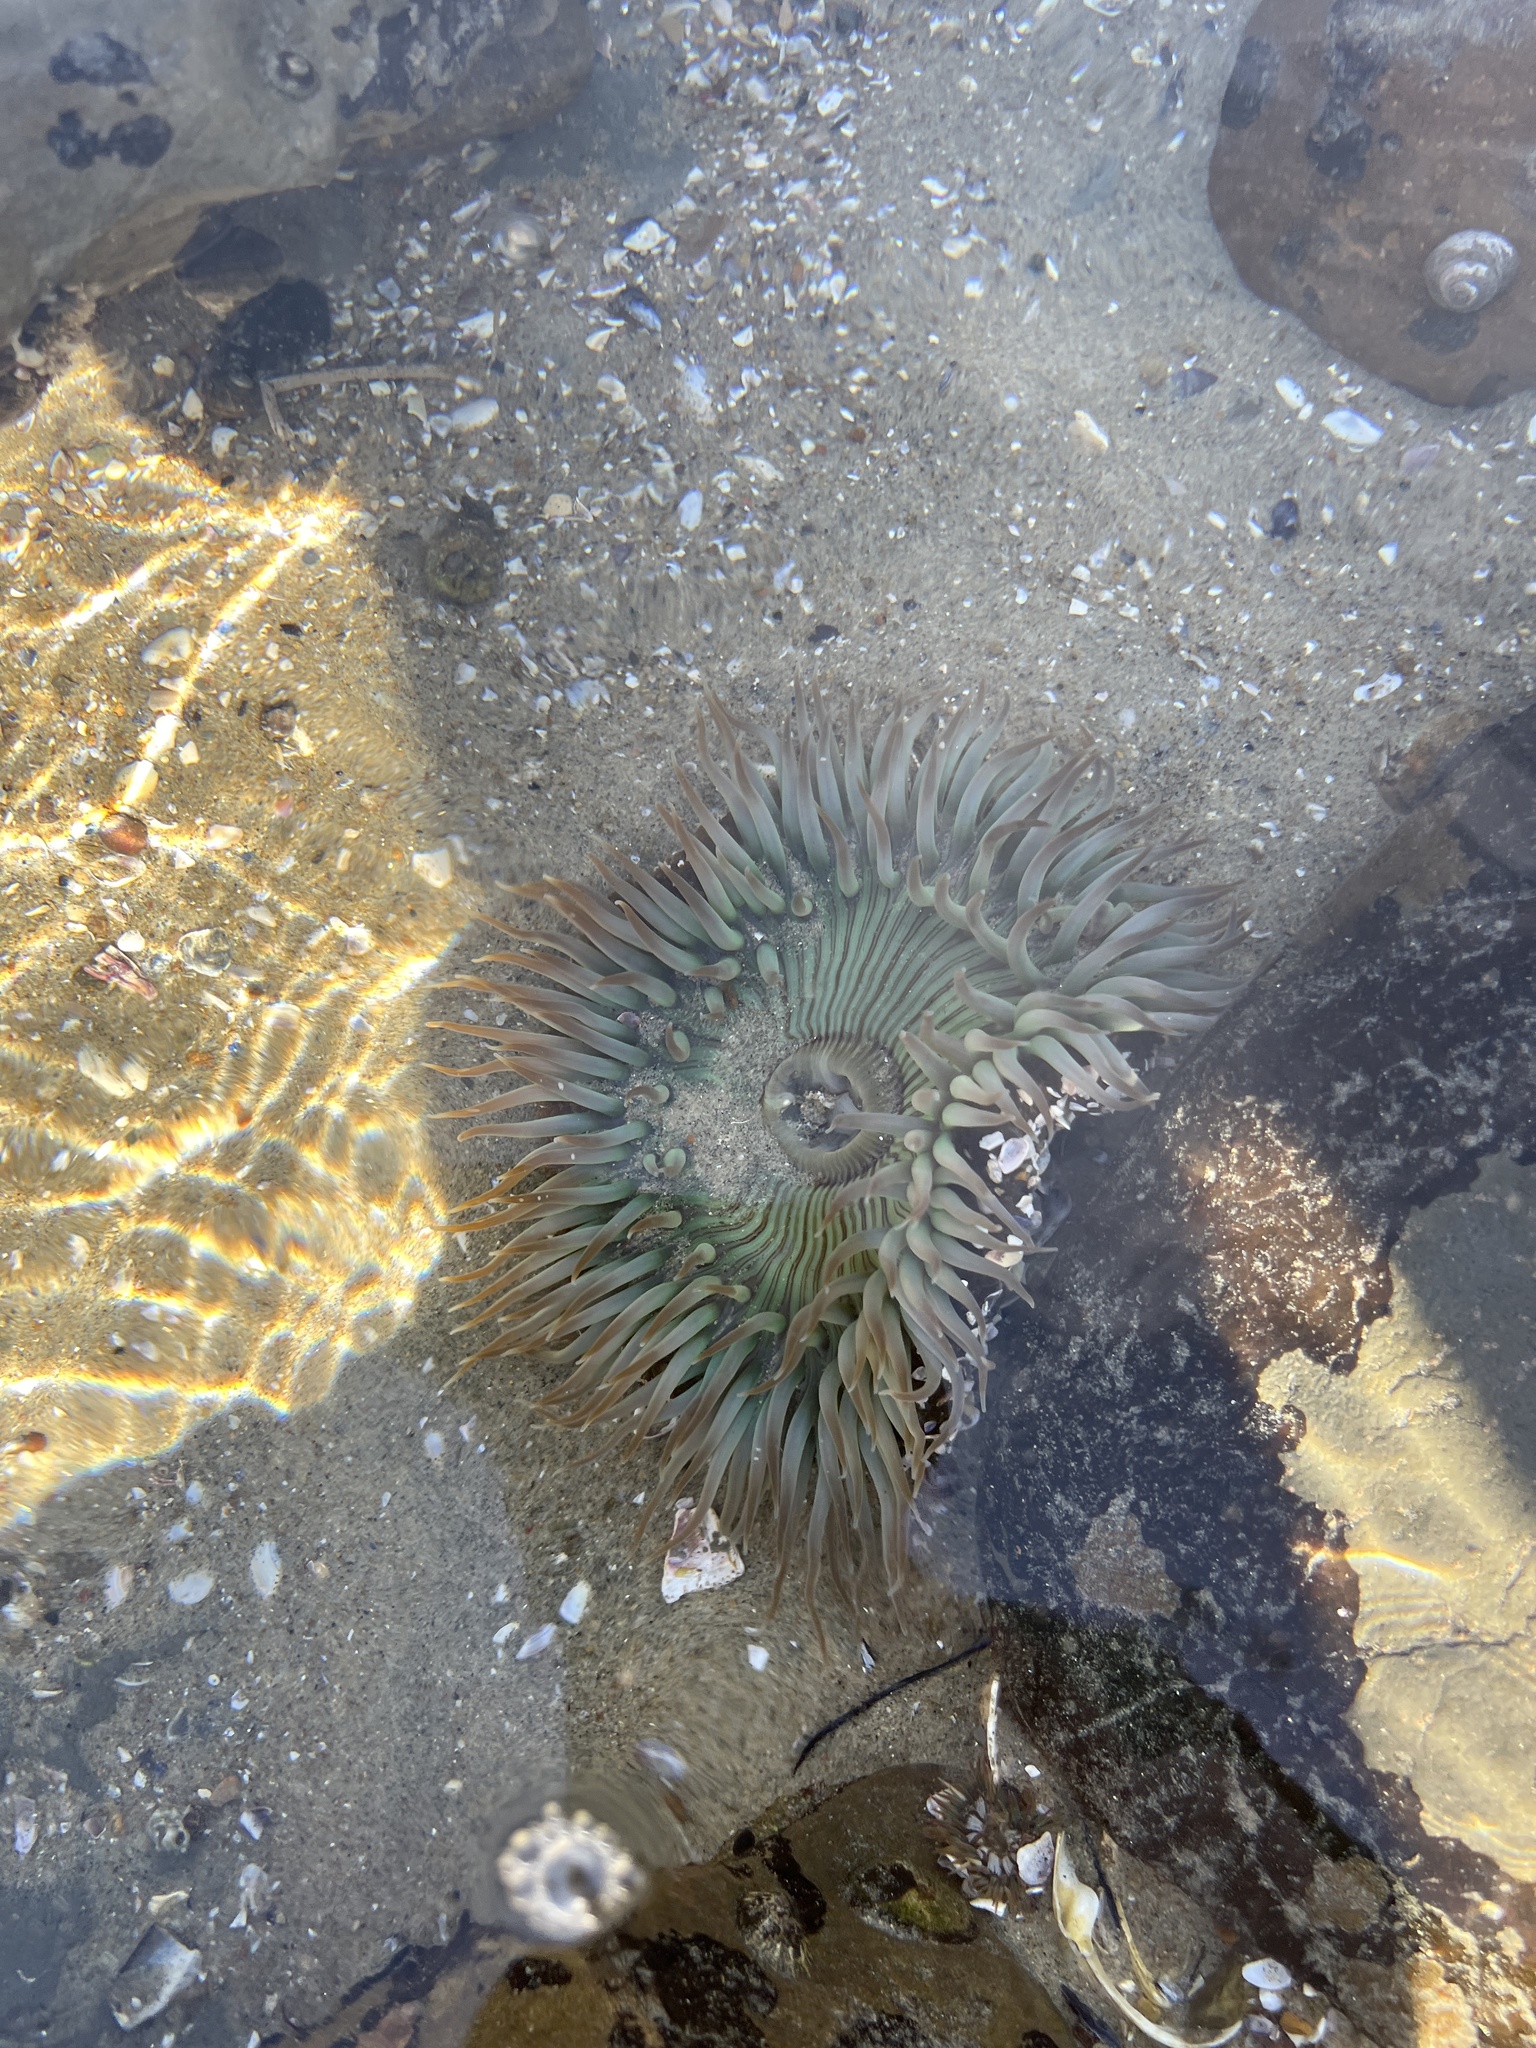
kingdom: Animalia
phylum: Cnidaria
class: Anthozoa
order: Actiniaria
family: Actiniidae
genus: Anthopleura
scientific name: Anthopleura sola
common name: Sun anemone
